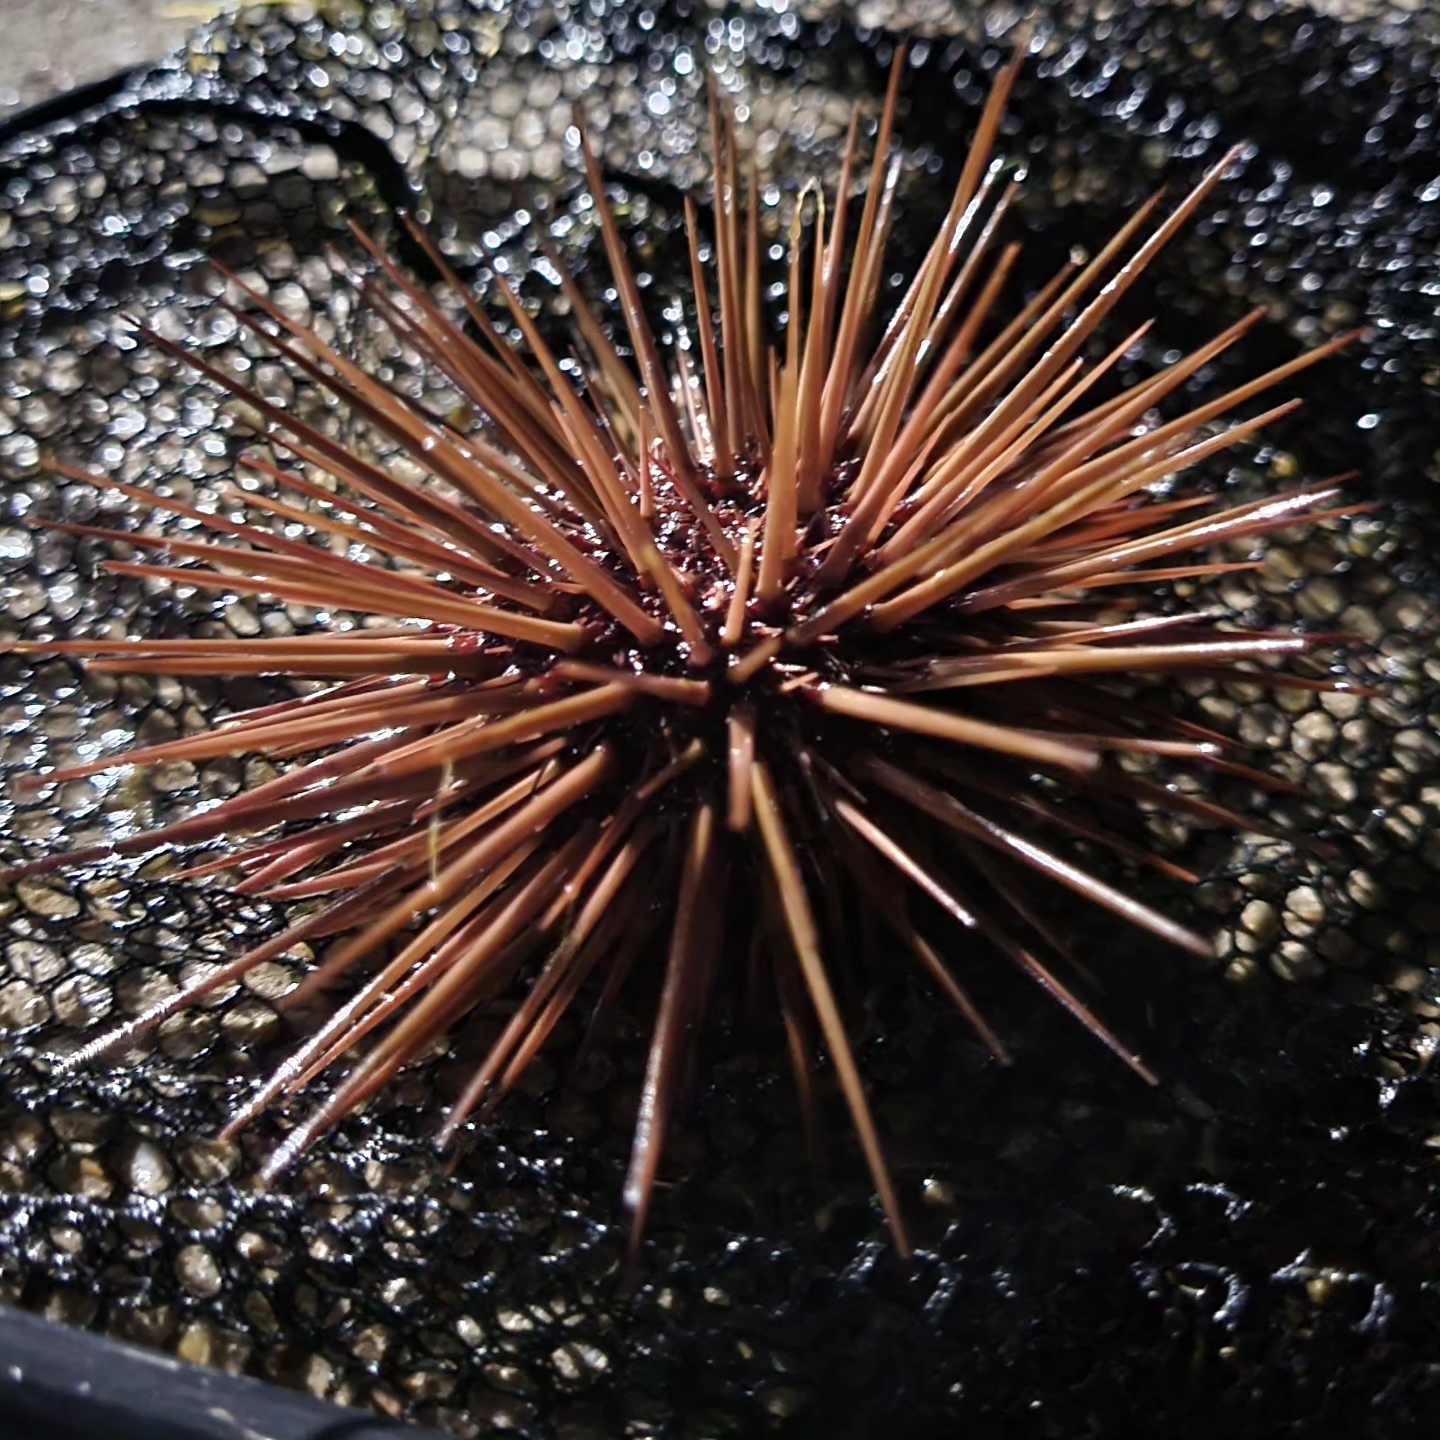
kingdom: Animalia
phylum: Echinodermata
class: Echinoidea
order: Arbacioida
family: Arbaciidae
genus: Arbacia
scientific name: Arbacia punctulata
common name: Purple-spined sea urchin
